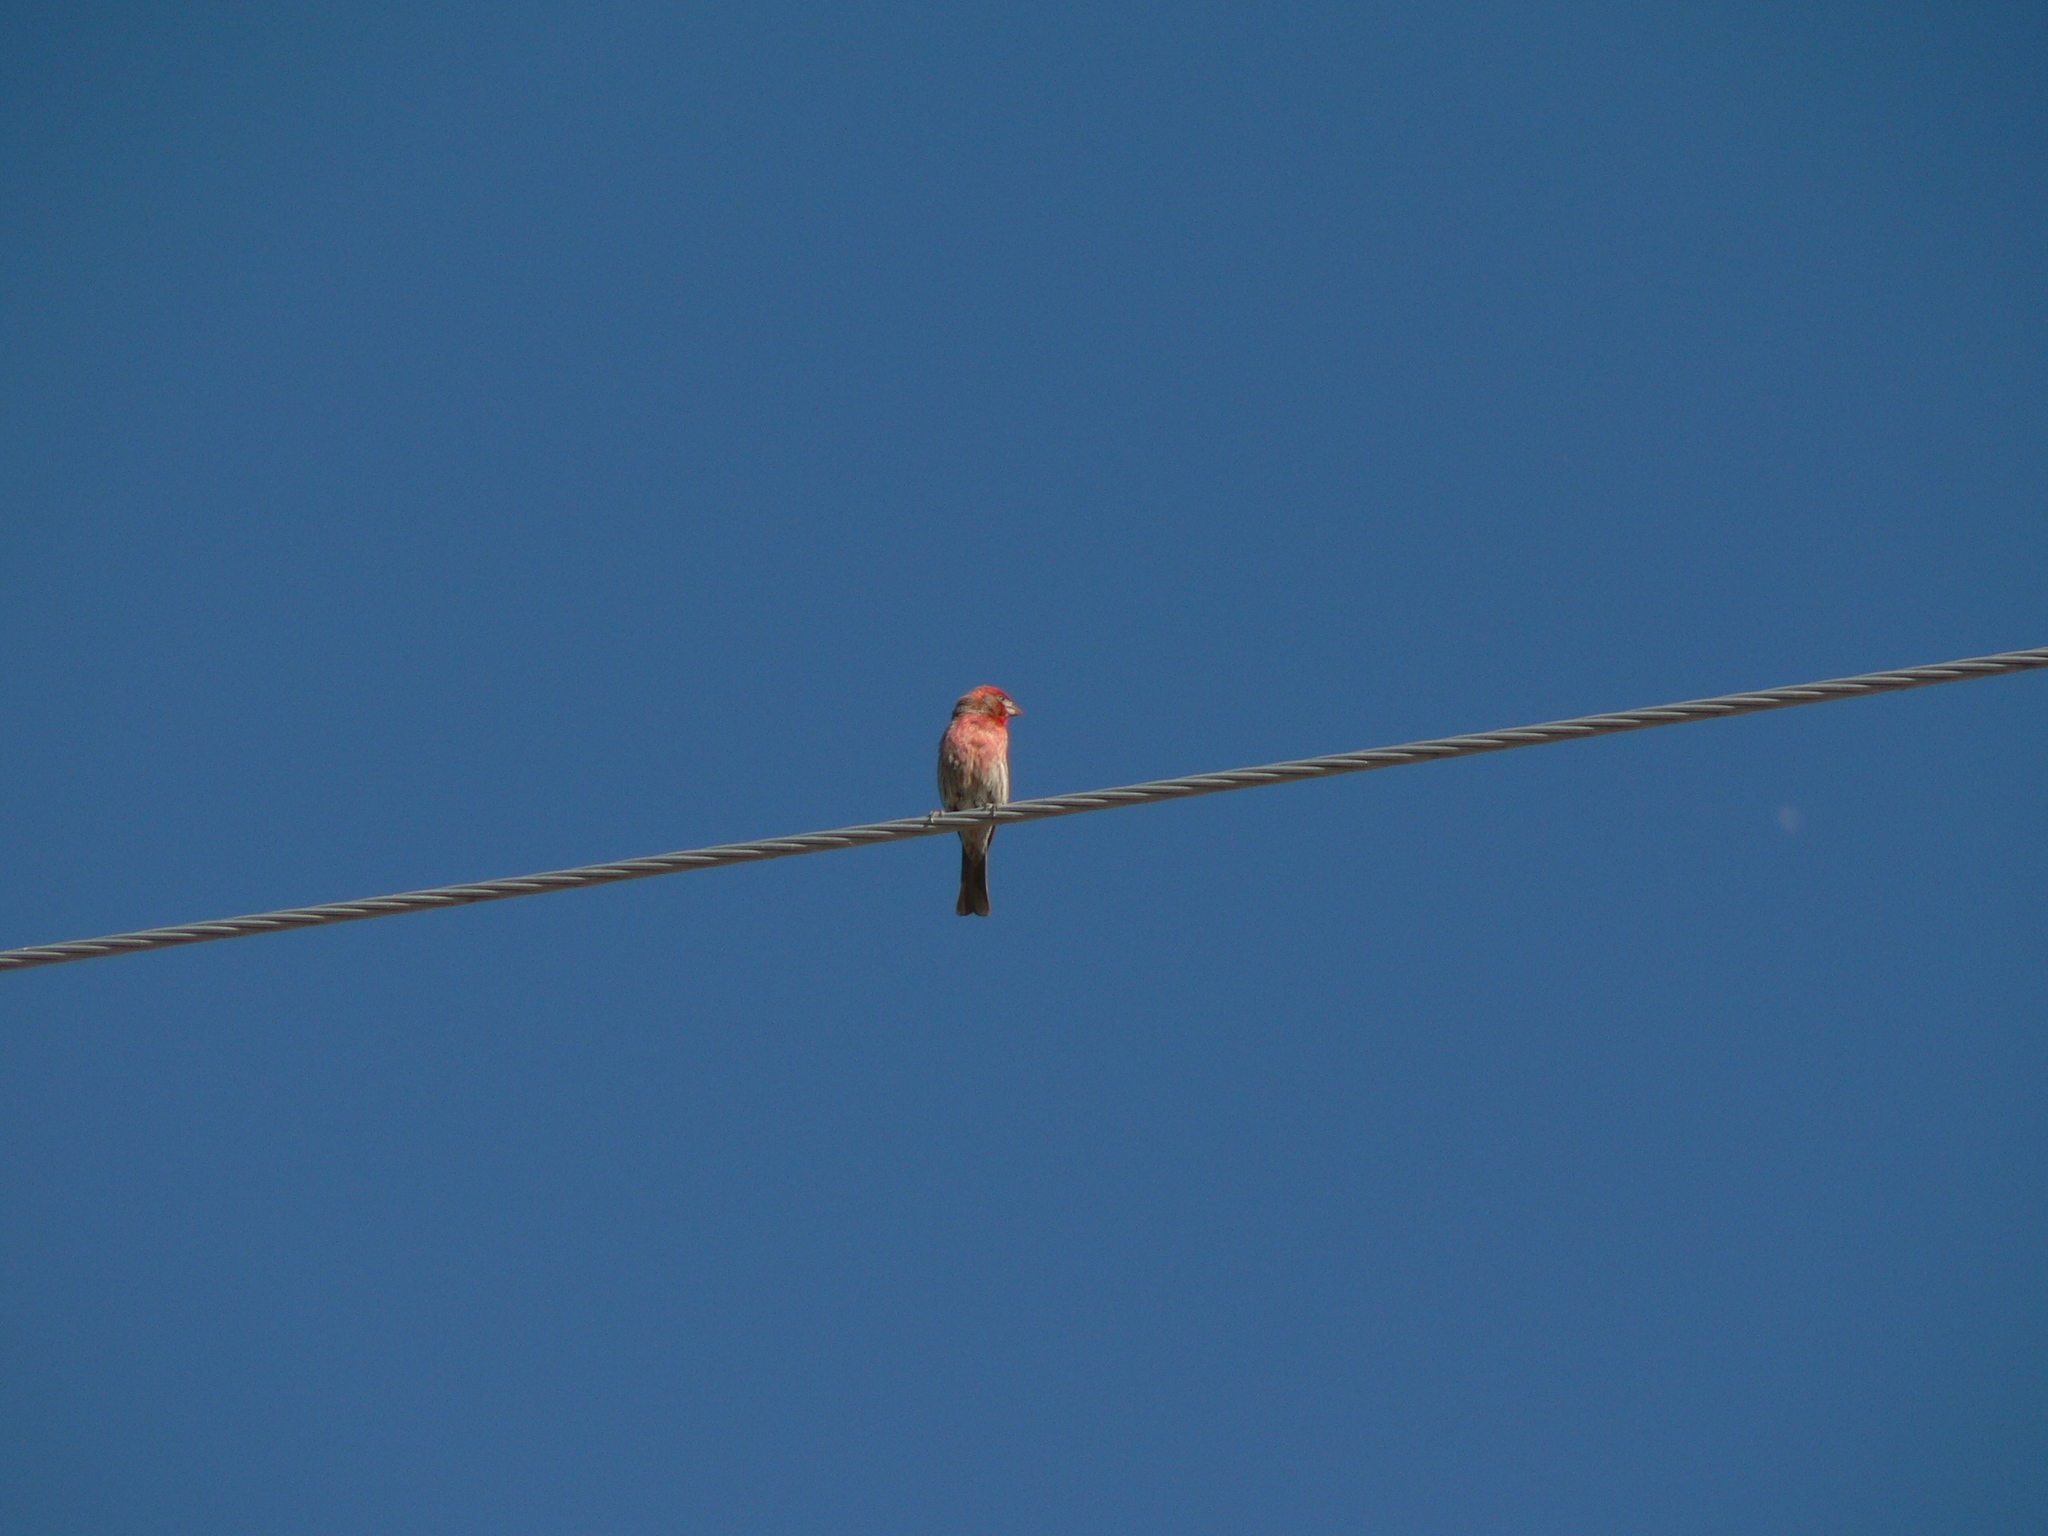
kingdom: Animalia
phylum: Chordata
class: Aves
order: Passeriformes
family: Fringillidae
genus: Haemorhous
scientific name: Haemorhous mexicanus
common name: House finch
